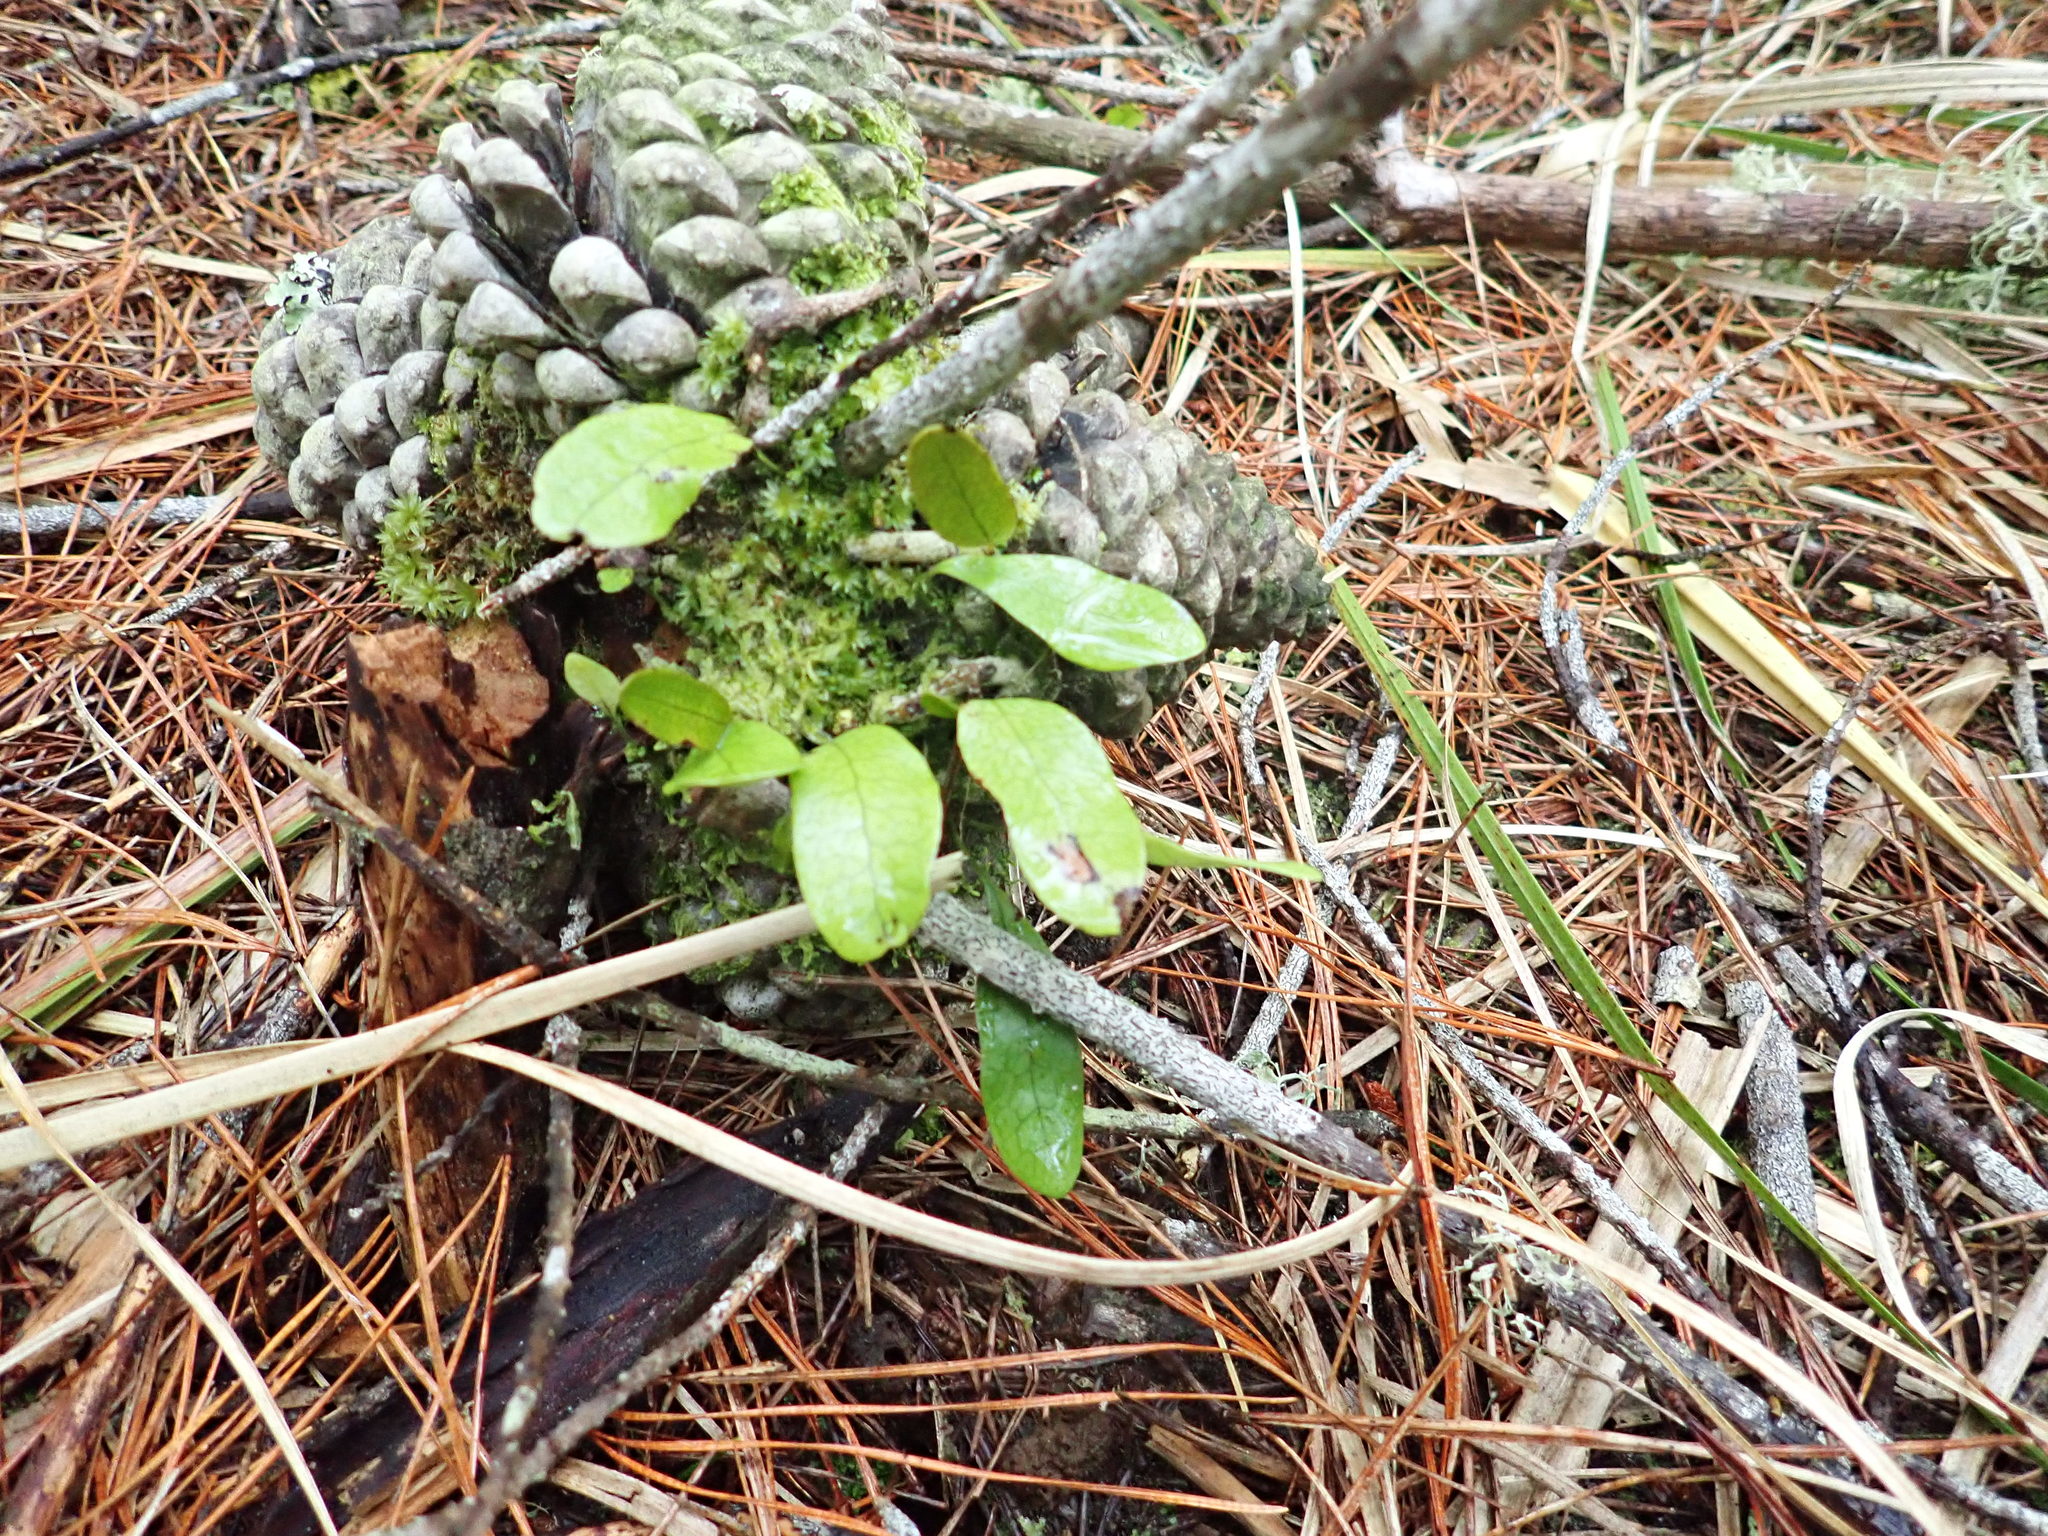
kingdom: Plantae
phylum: Tracheophyta
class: Polypodiopsida
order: Polypodiales
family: Polypodiaceae
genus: Lecanopteris
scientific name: Lecanopteris pustulata
